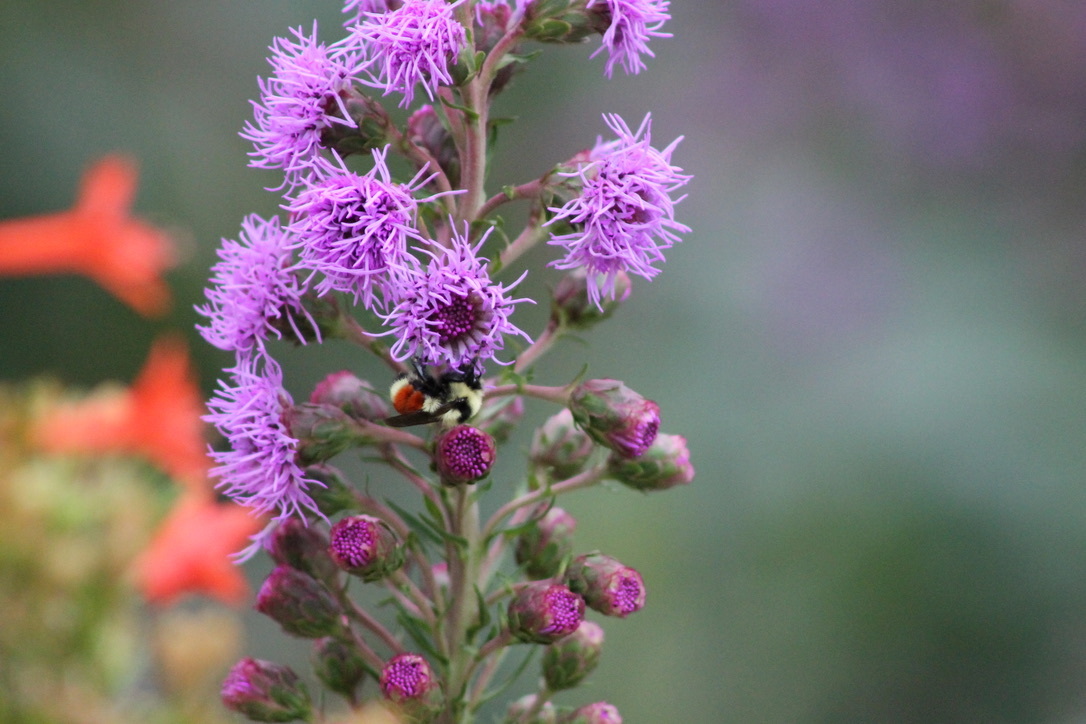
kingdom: Animalia
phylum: Arthropoda
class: Insecta
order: Hymenoptera
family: Apidae
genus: Bombus
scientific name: Bombus huntii
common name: Hunt bumble bee
